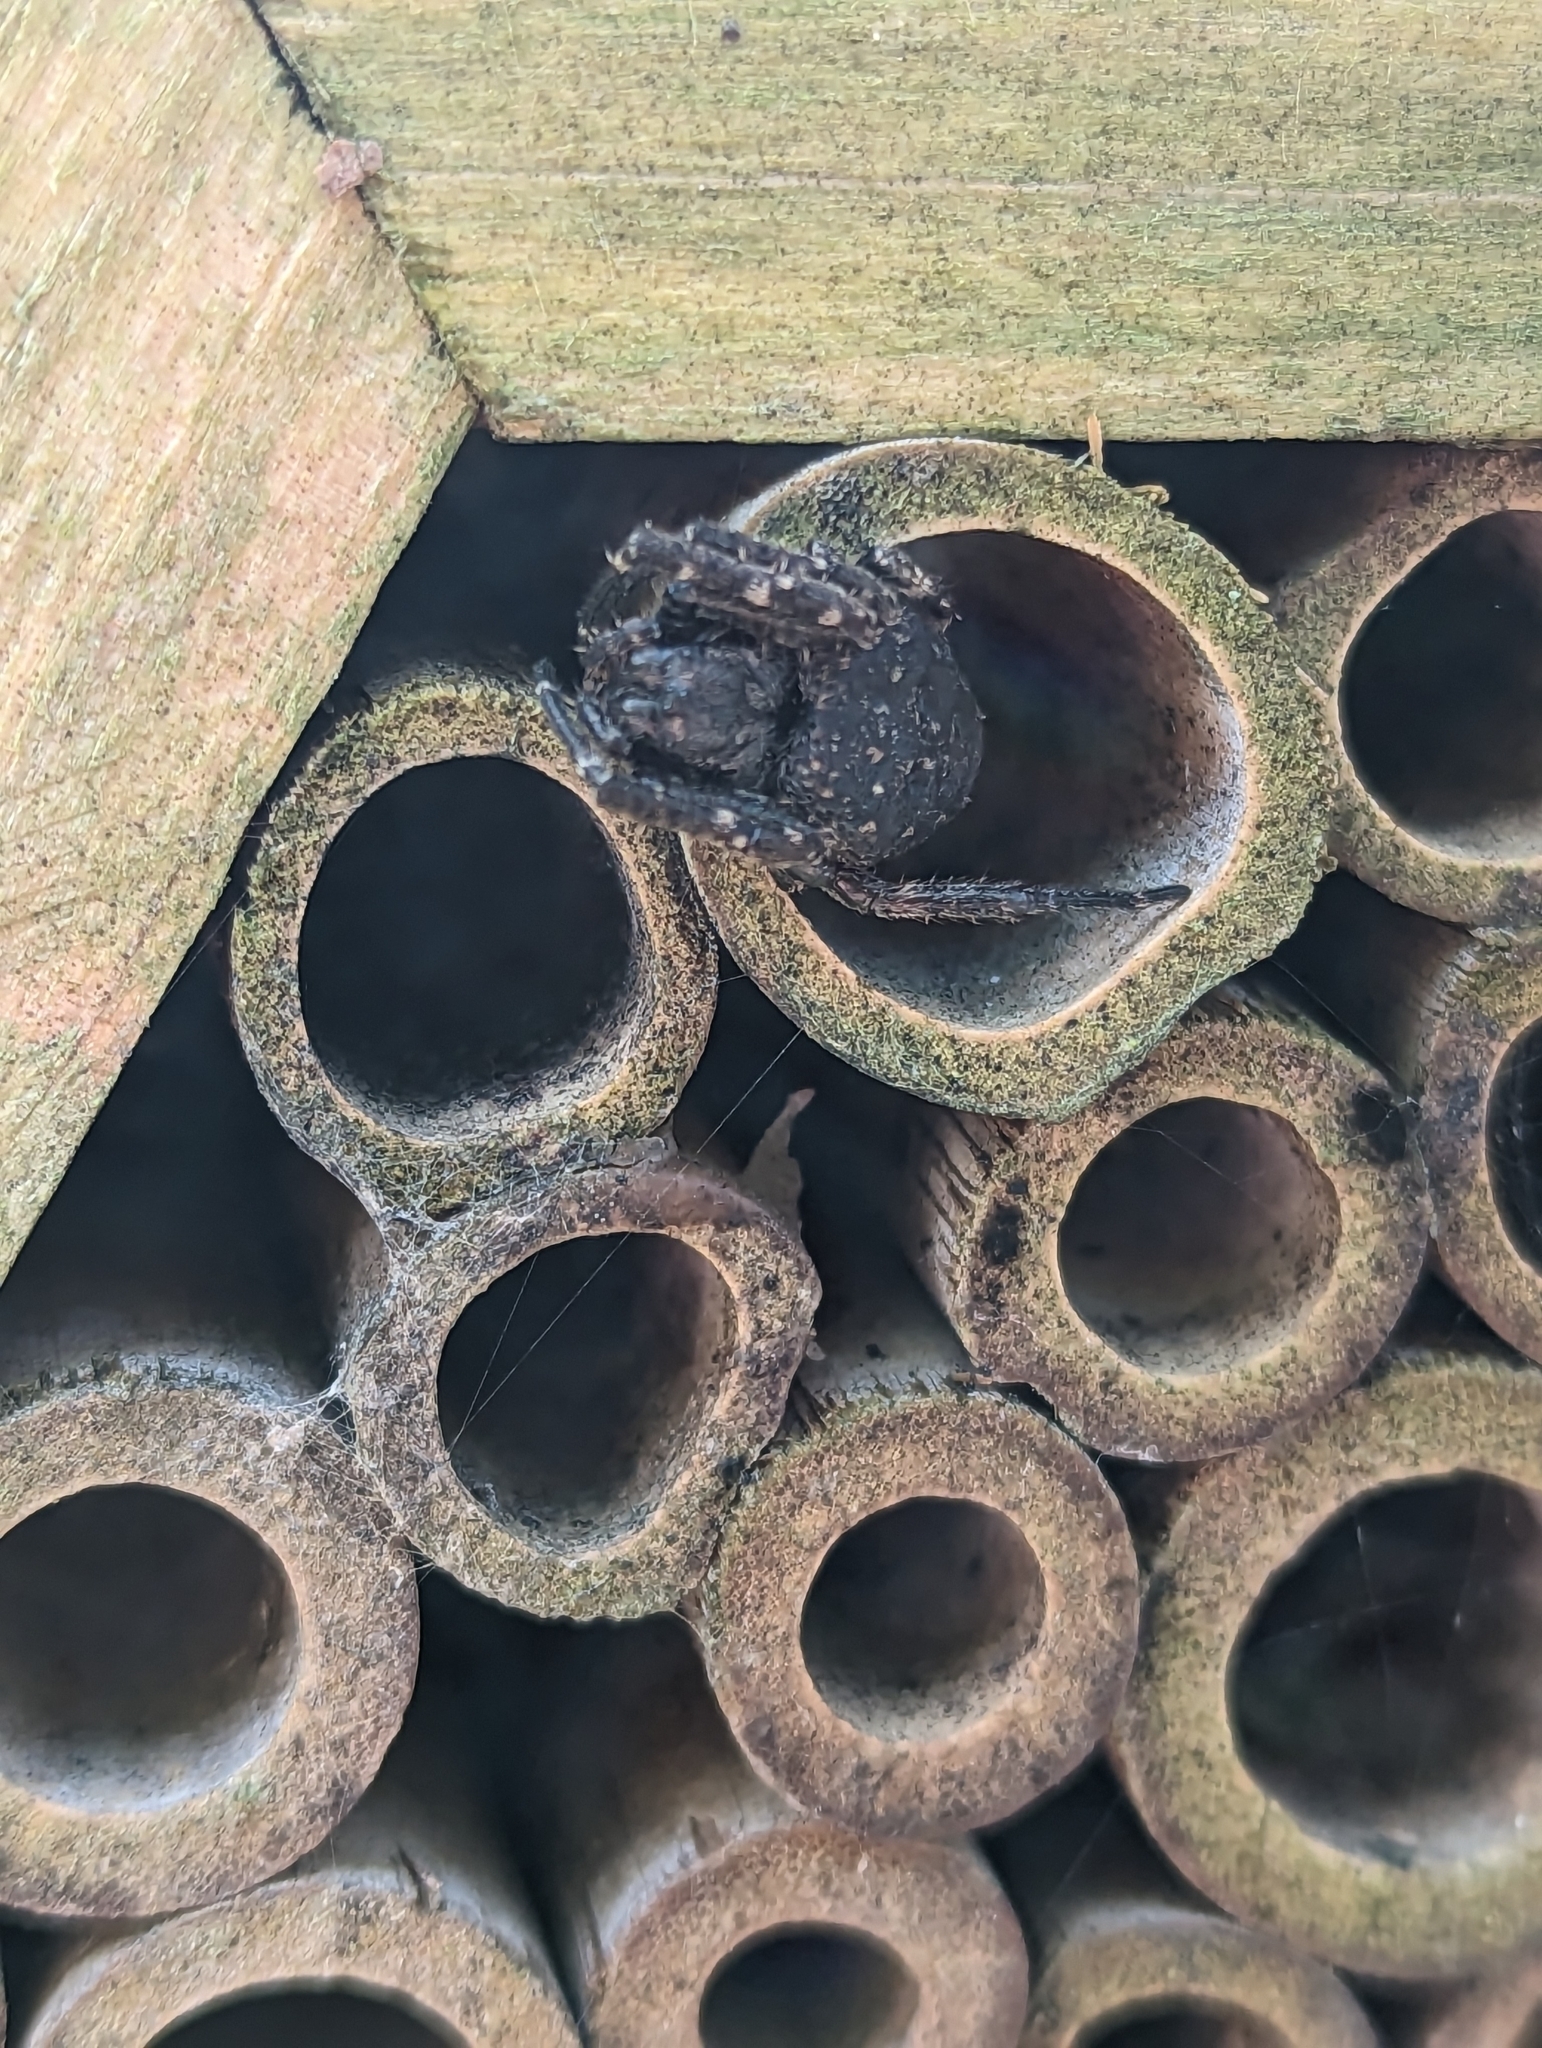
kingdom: Animalia
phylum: Arthropoda
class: Arachnida
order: Araneae
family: Araneidae
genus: Nuctenea
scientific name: Nuctenea umbratica
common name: Toad spider
